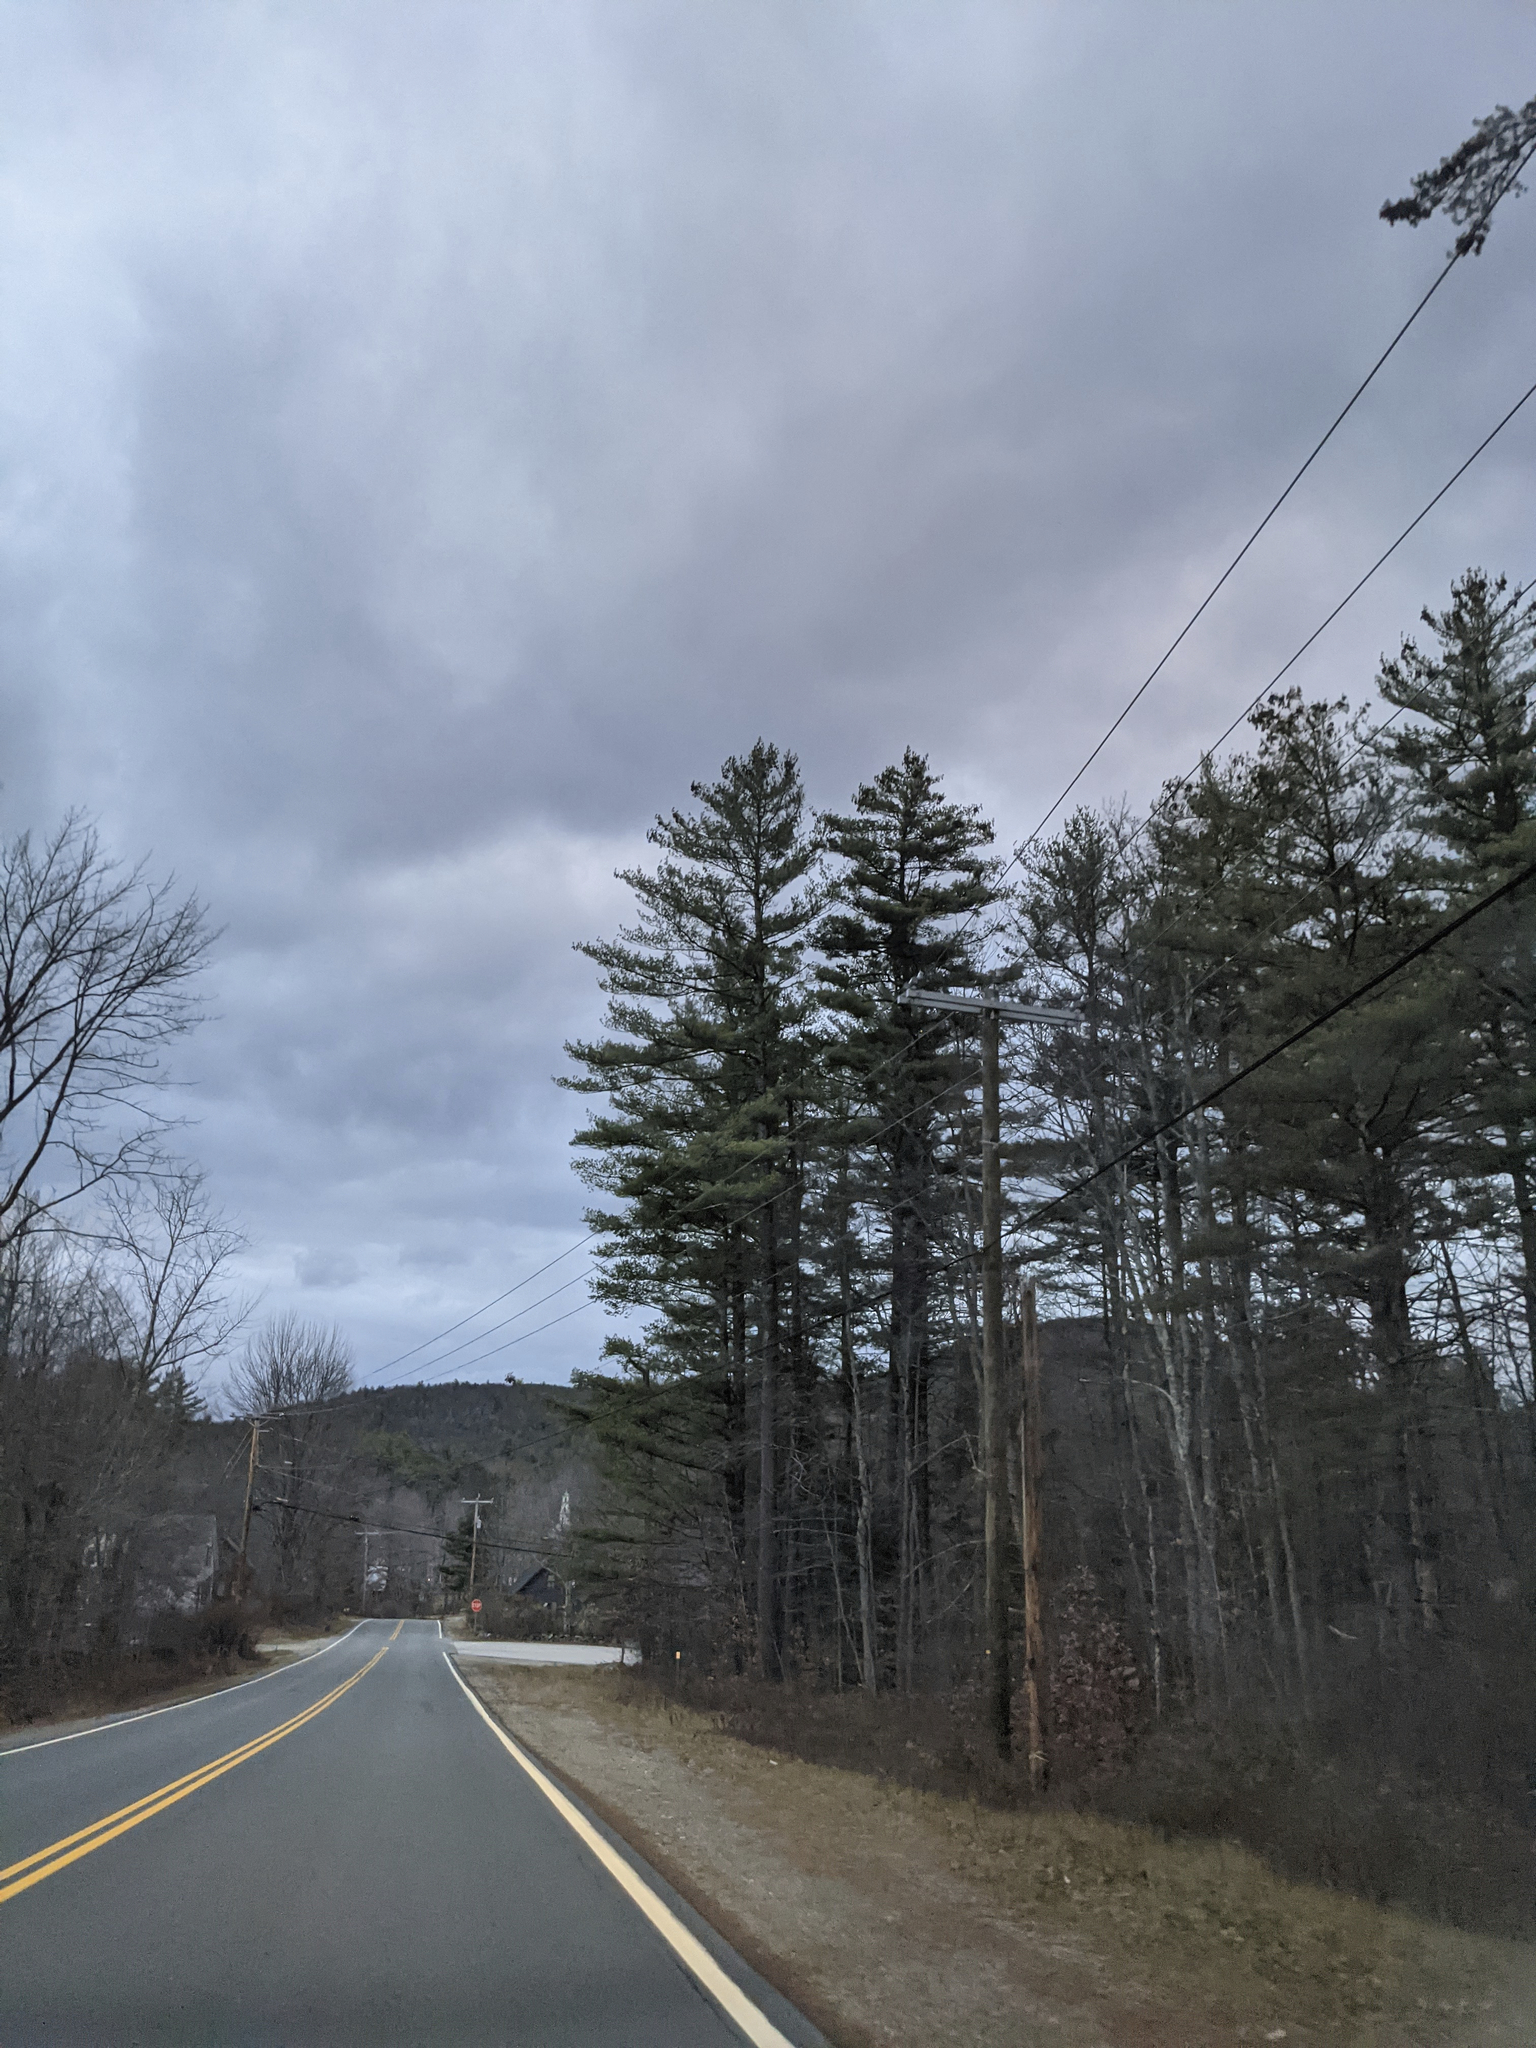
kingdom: Plantae
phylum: Tracheophyta
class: Pinopsida
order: Pinales
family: Pinaceae
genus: Pinus
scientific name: Pinus strobus
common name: Weymouth pine
